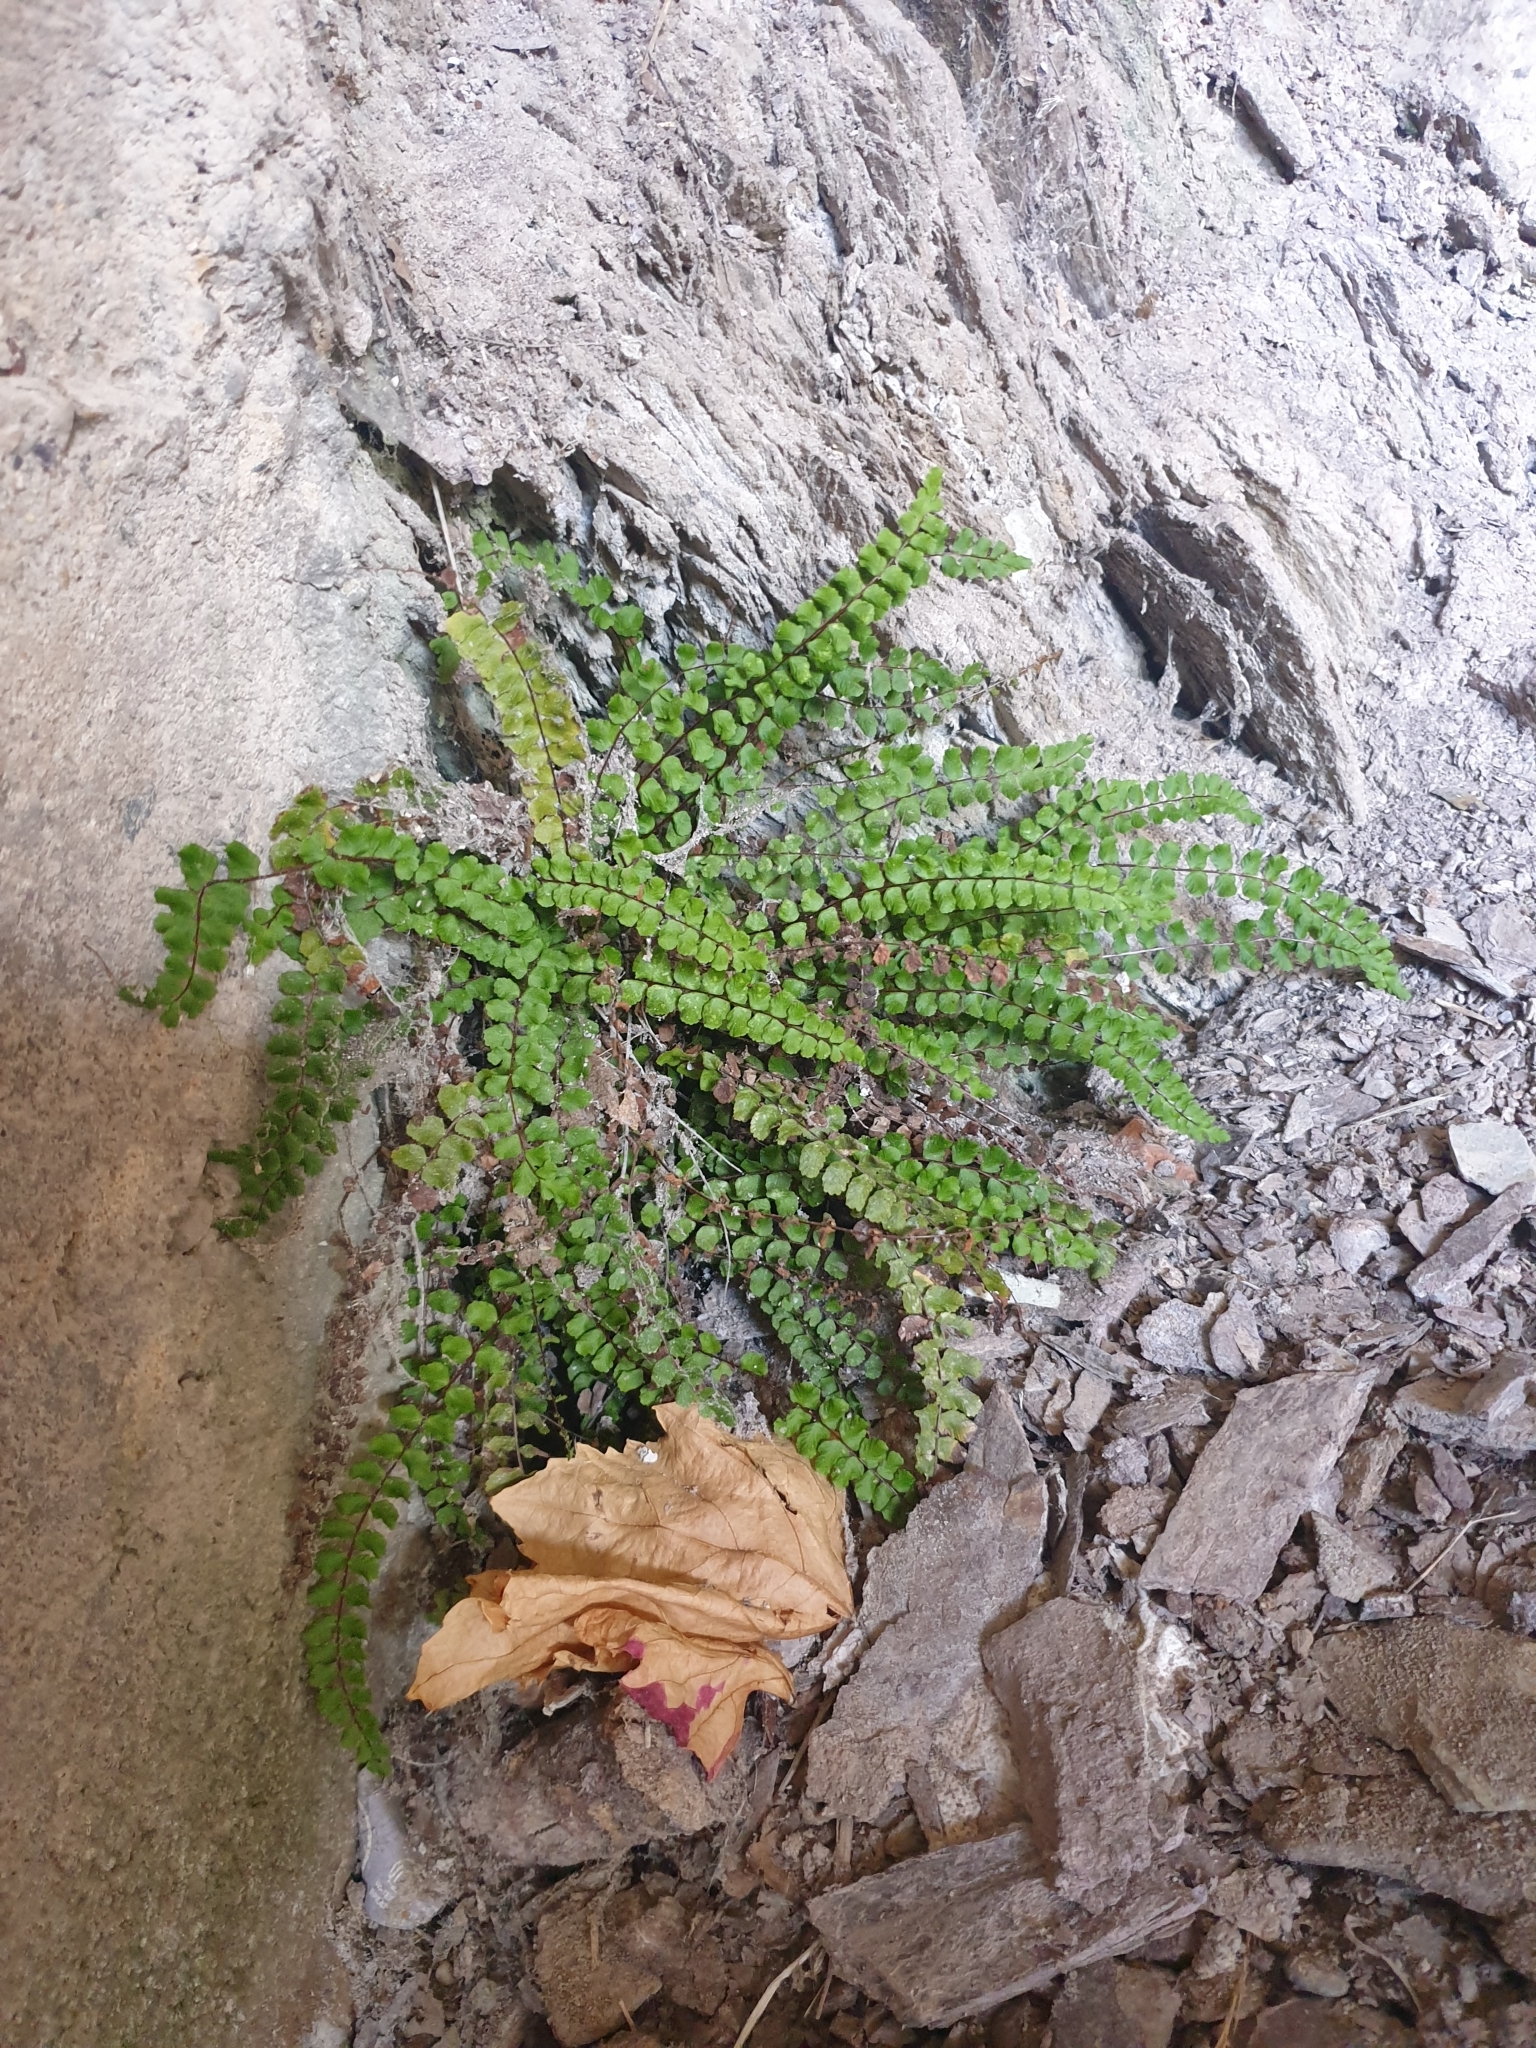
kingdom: Plantae
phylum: Tracheophyta
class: Polypodiopsida
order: Polypodiales
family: Aspleniaceae
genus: Asplenium
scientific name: Asplenium trichomanes
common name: Maidenhair spleenwort
